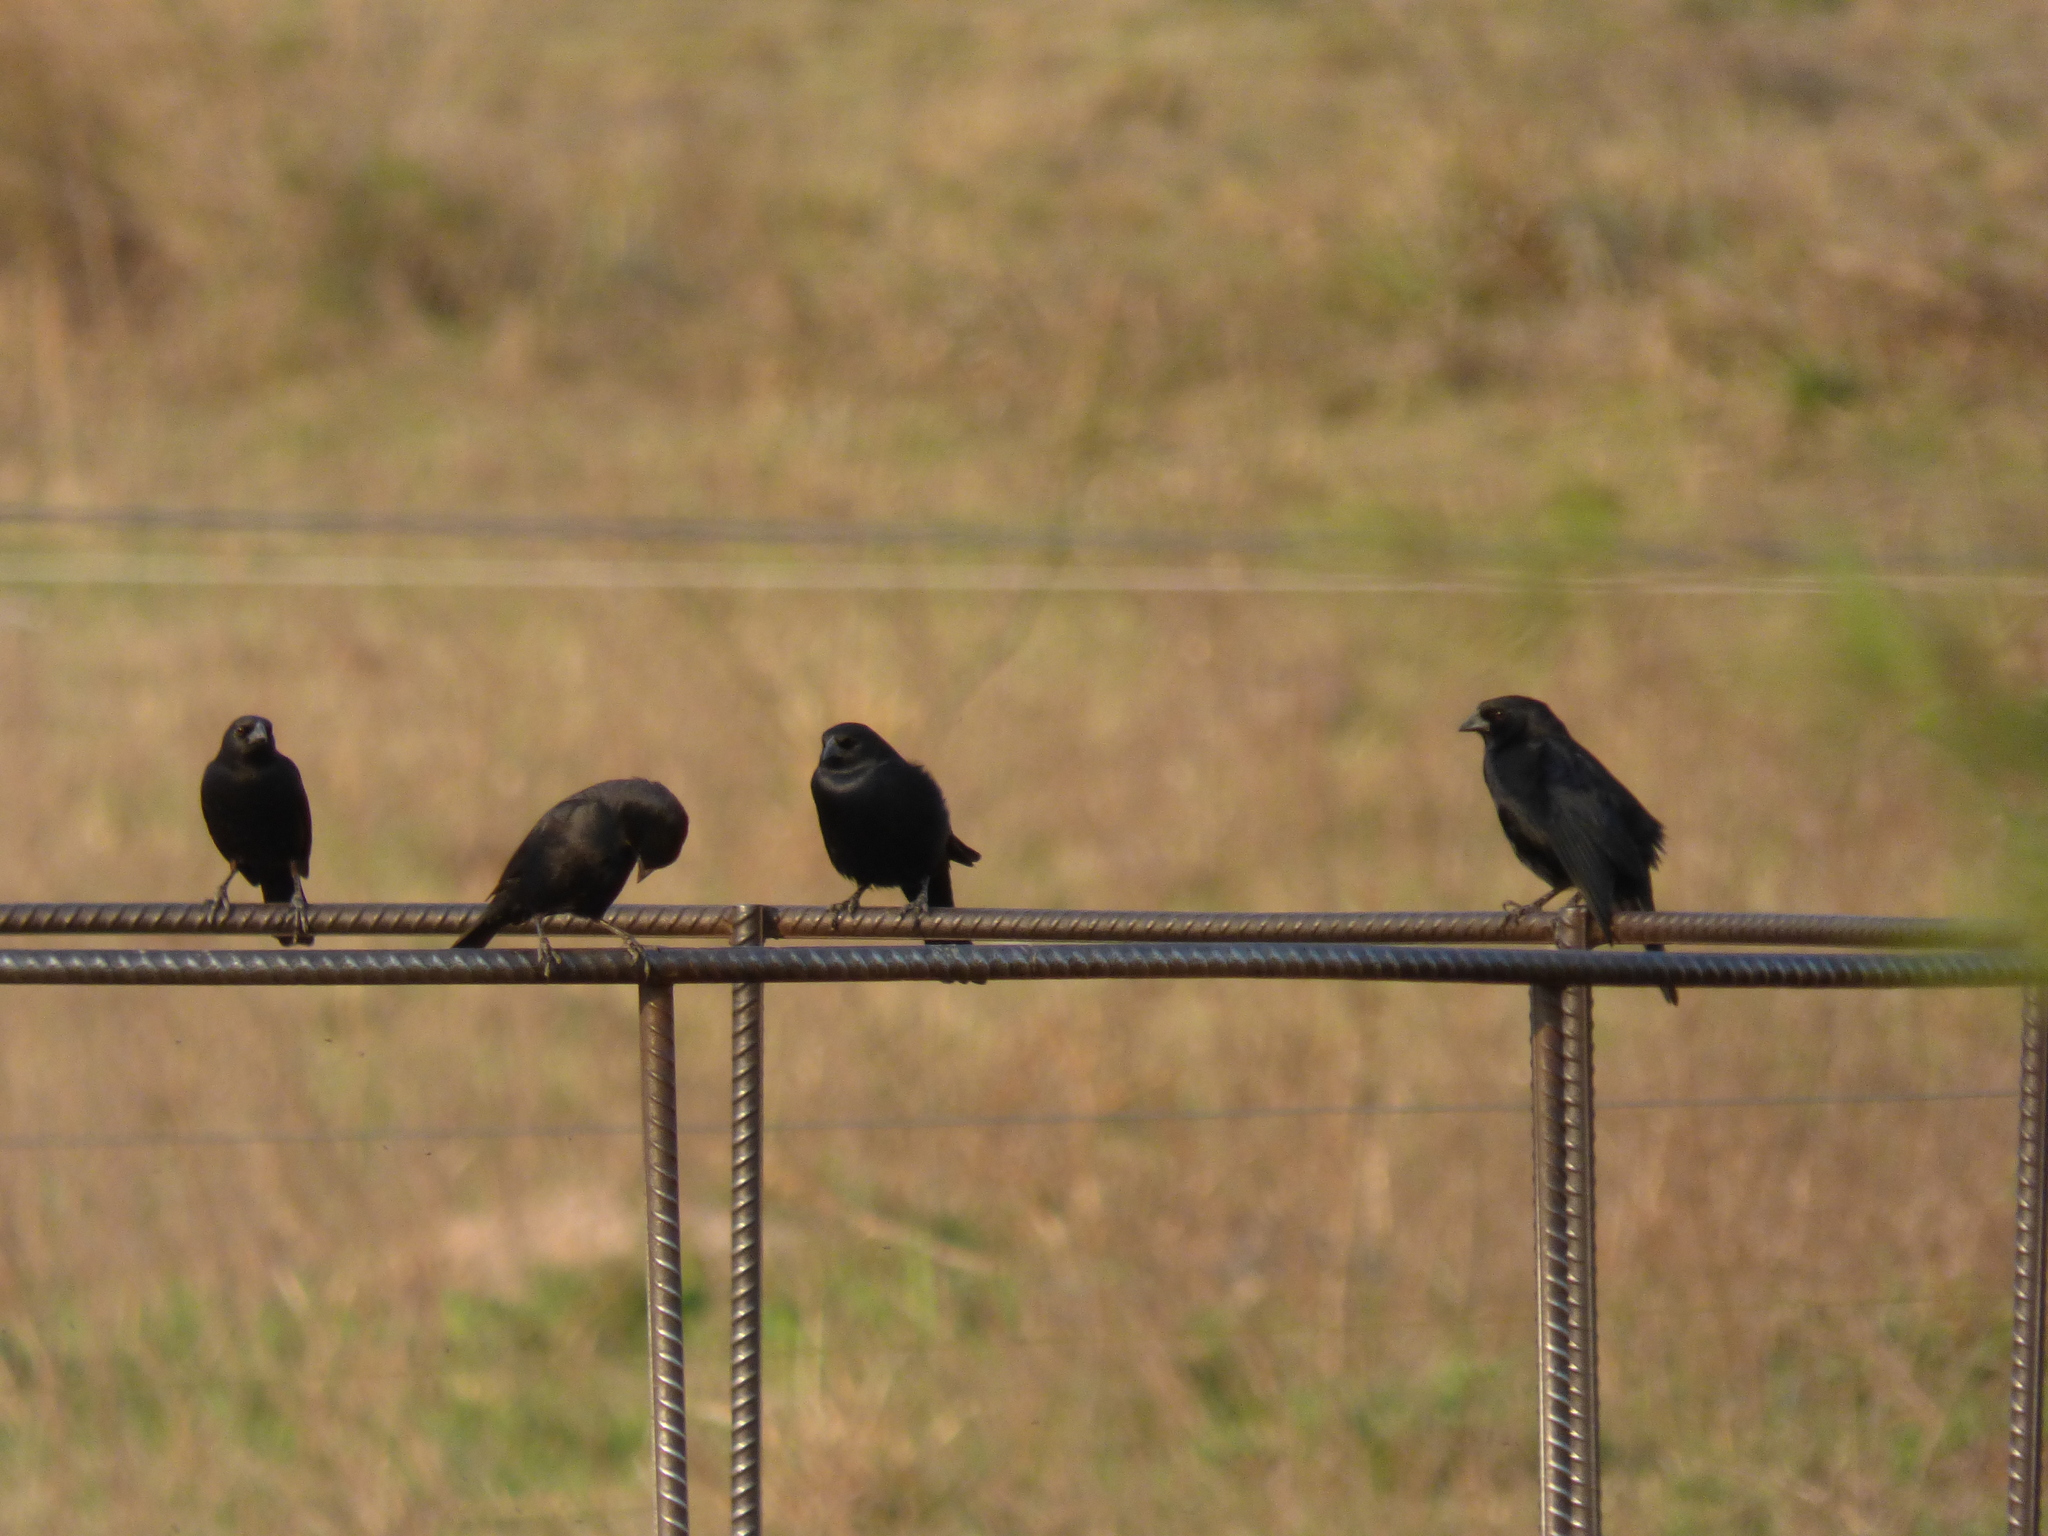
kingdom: Animalia
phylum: Chordata
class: Aves
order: Passeriformes
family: Icteridae
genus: Molothrus
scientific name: Molothrus rufoaxillaris
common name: Screaming cowbird
